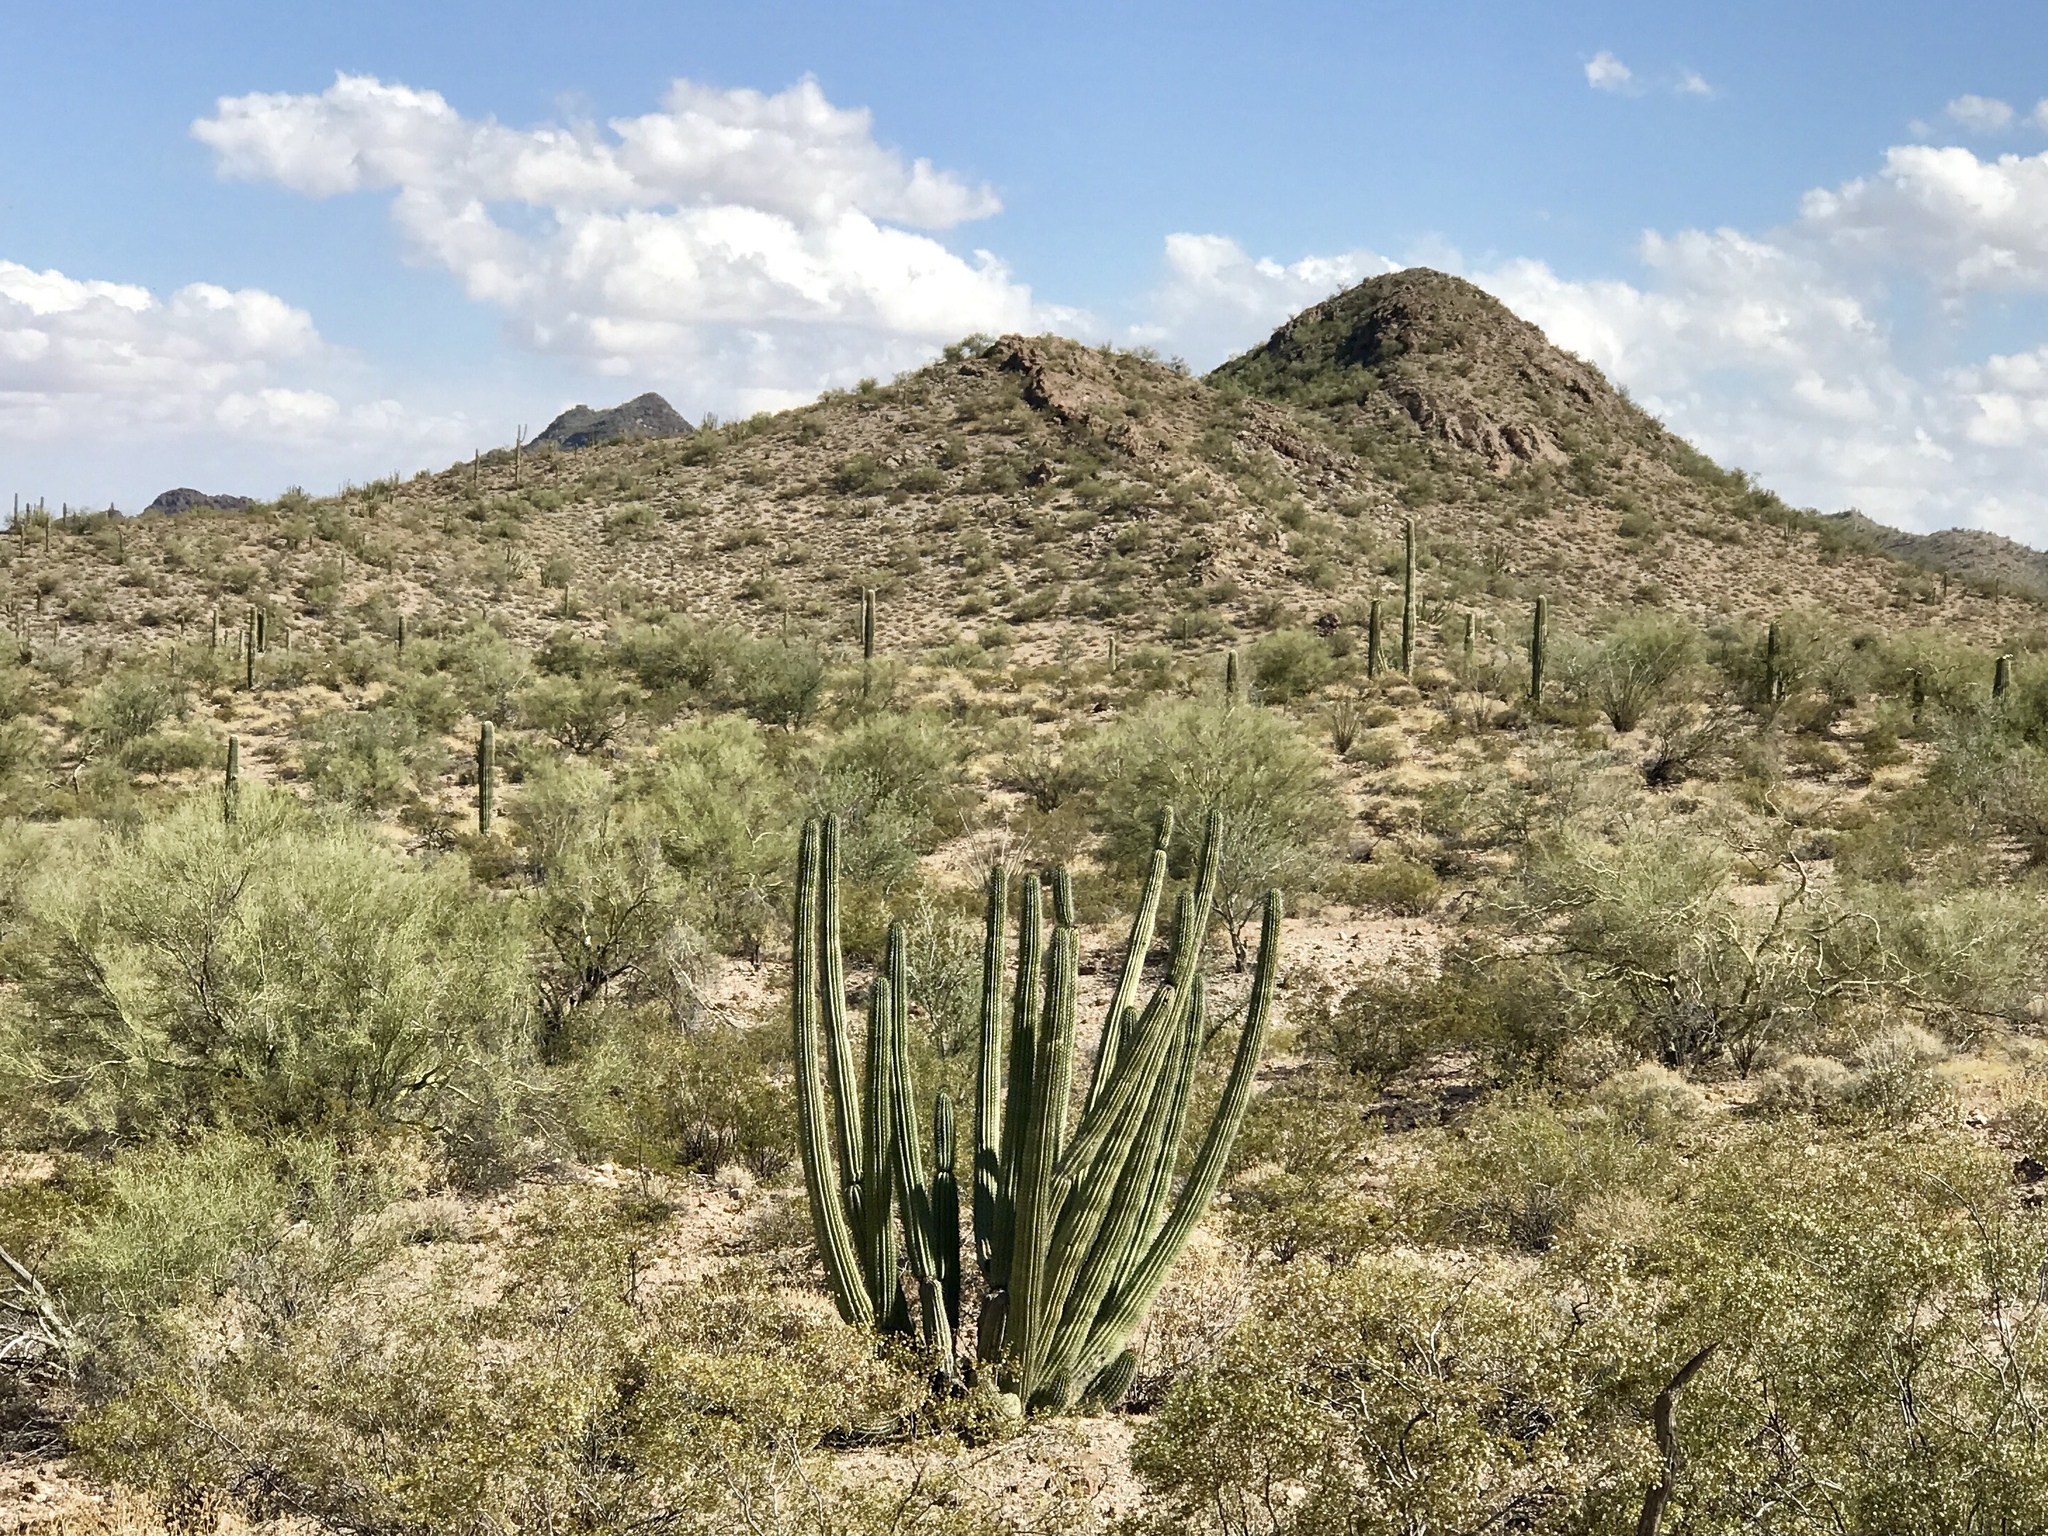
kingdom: Plantae
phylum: Tracheophyta
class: Magnoliopsida
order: Caryophyllales
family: Cactaceae
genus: Stenocereus
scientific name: Stenocereus thurberi
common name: Organ pipe cactus
